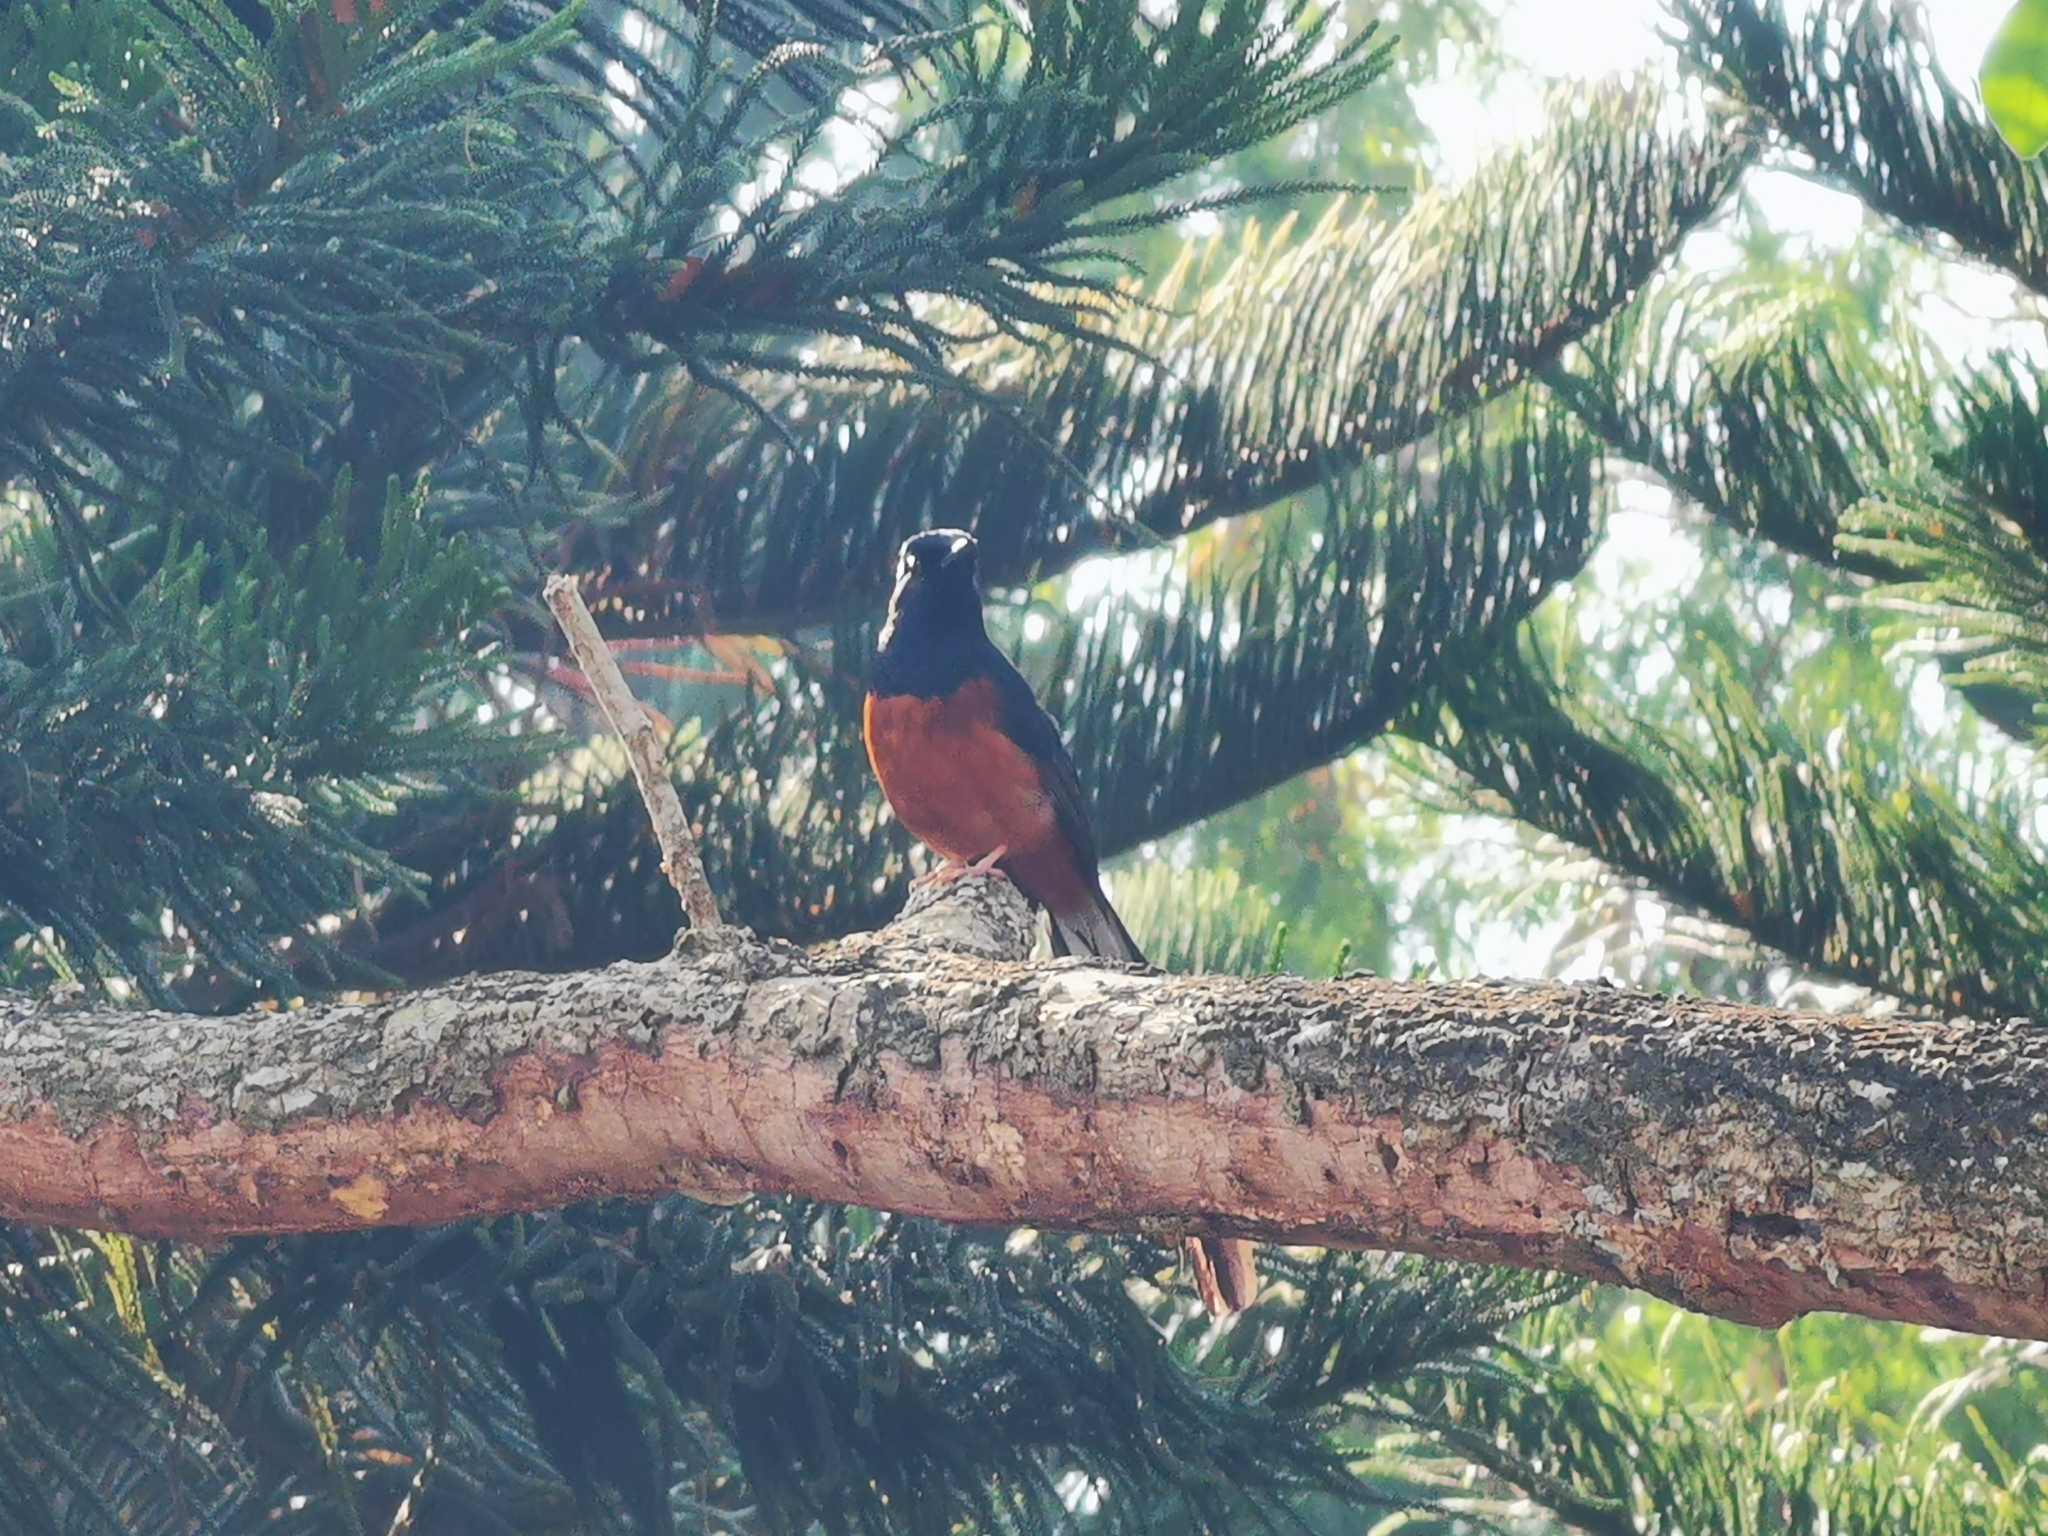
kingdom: Animalia
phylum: Chordata
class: Aves
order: Passeriformes
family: Muscicapidae
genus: Copsychus
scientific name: Copsychus malabaricus
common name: White-rumped shama
